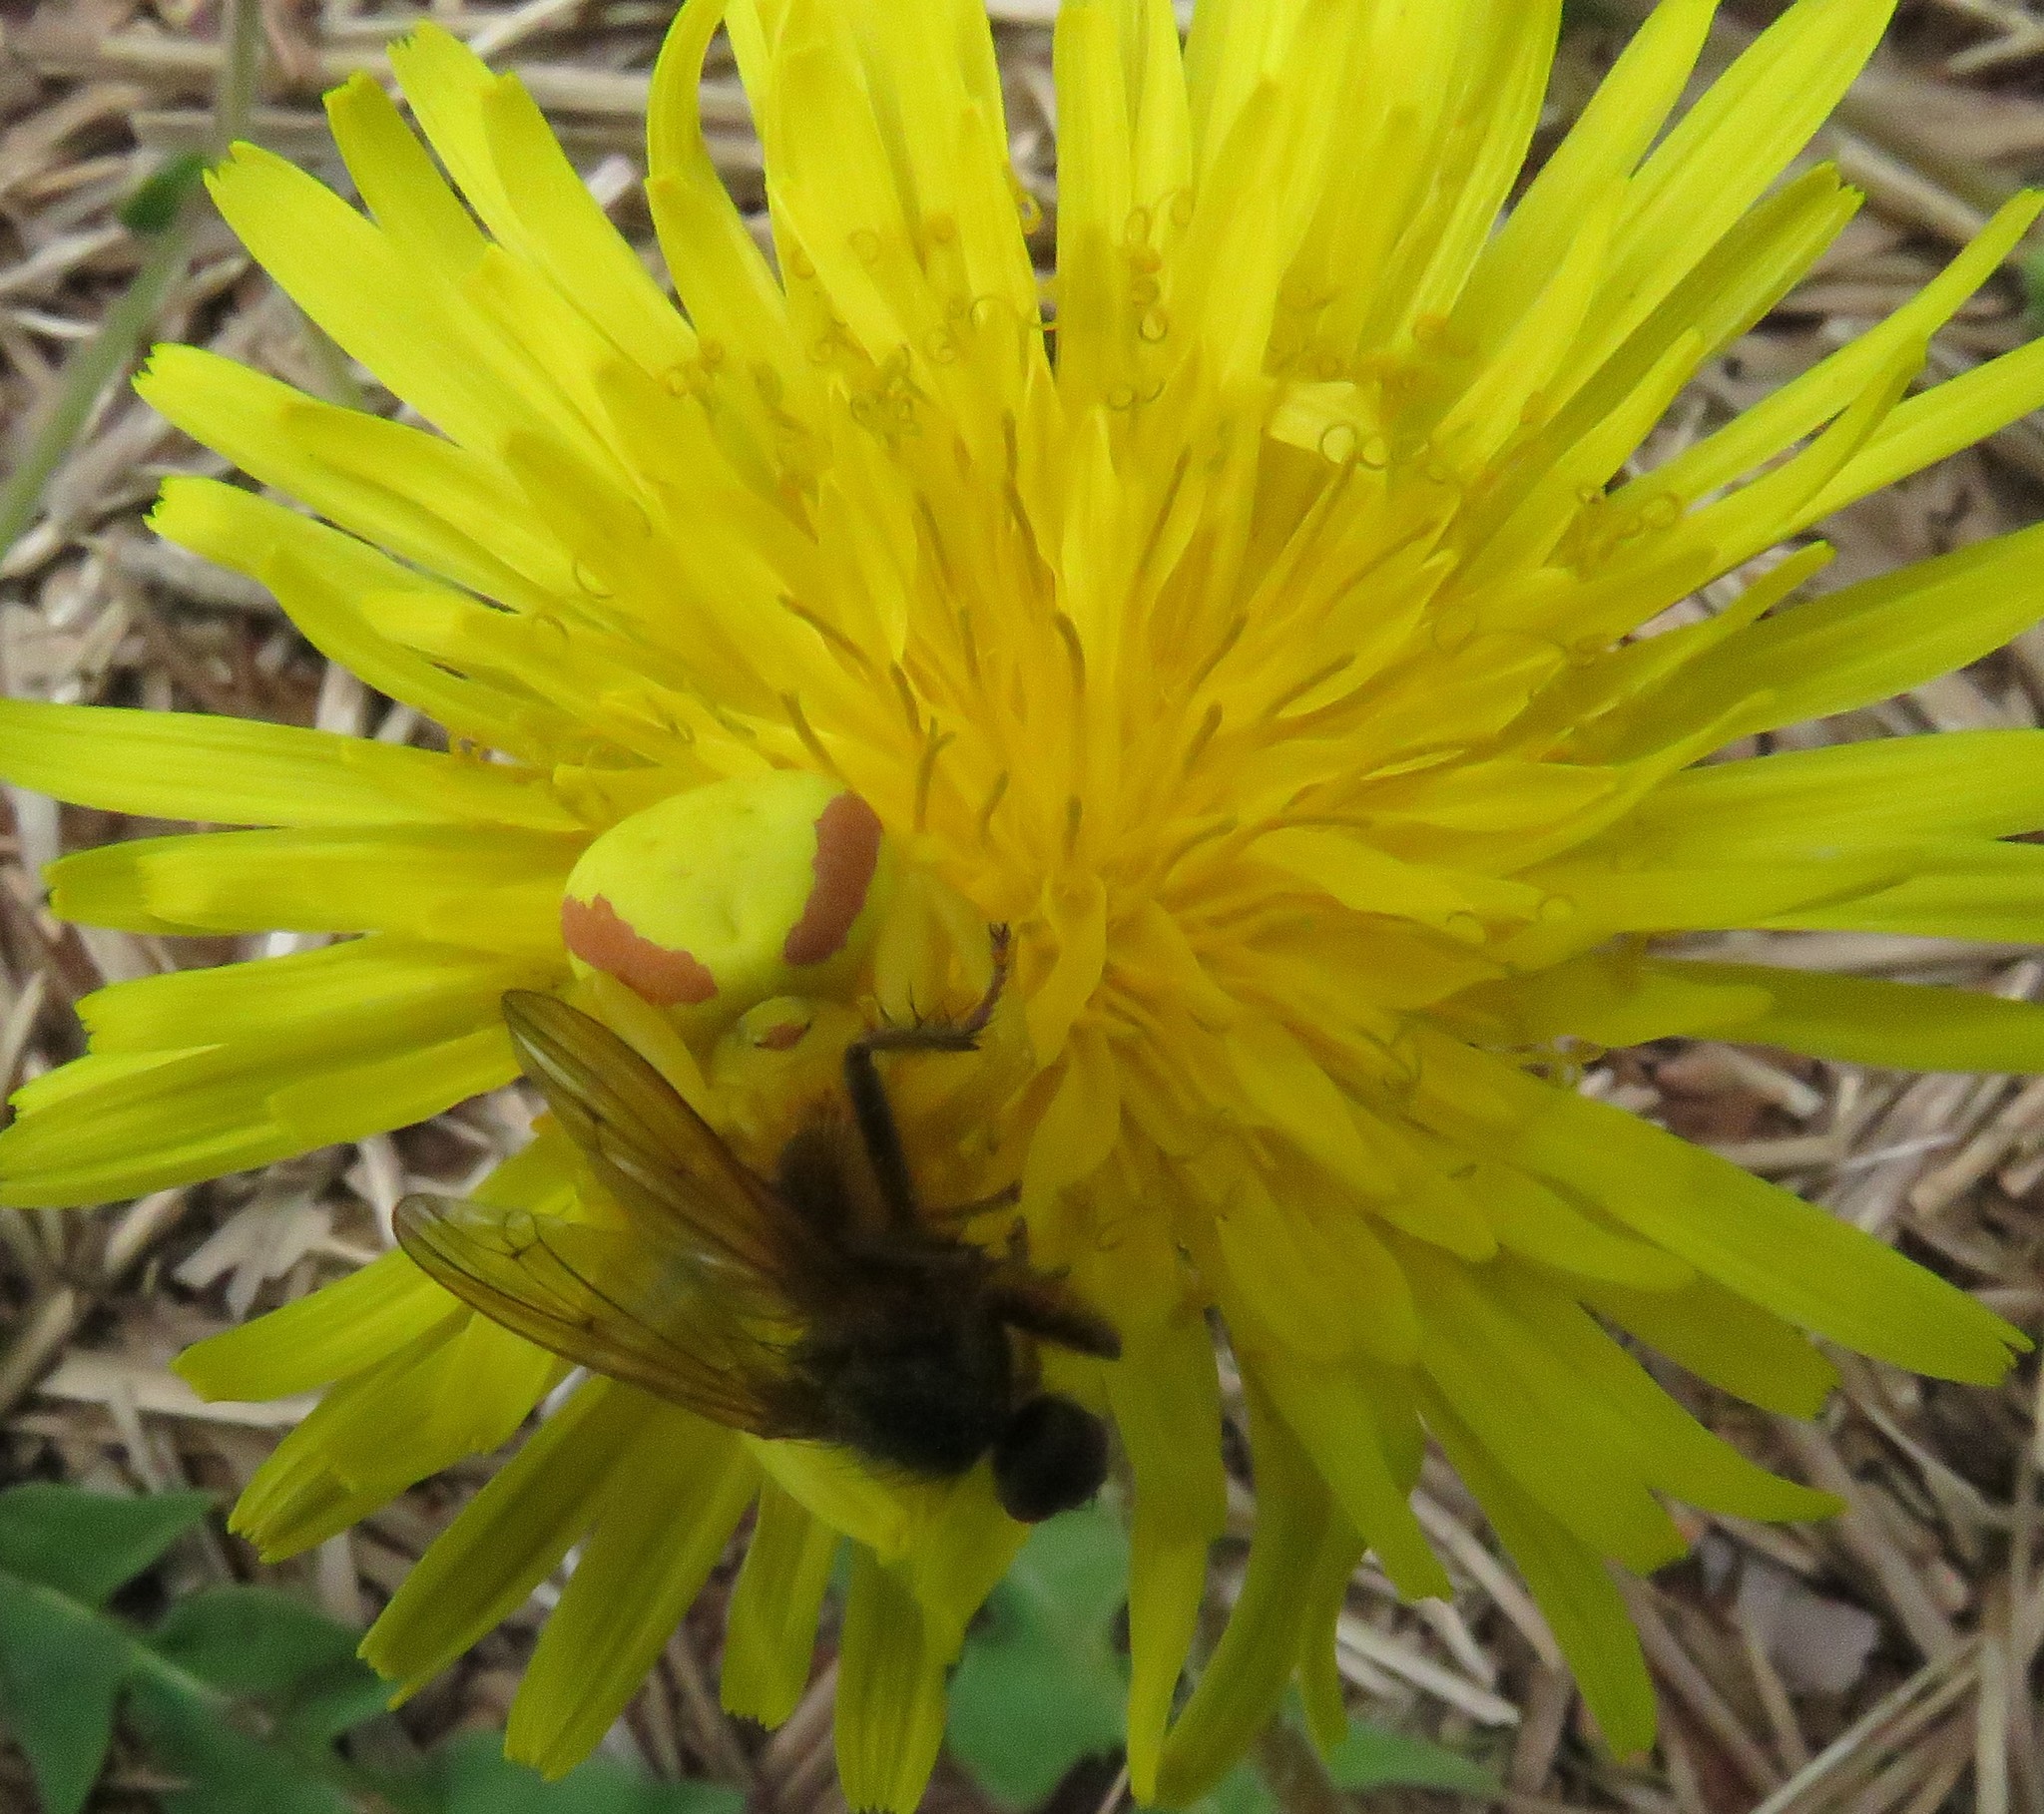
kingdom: Animalia
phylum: Arthropoda
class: Arachnida
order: Araneae
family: Thomisidae
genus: Misumena
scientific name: Misumena vatia
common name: Goldenrod crab spider
